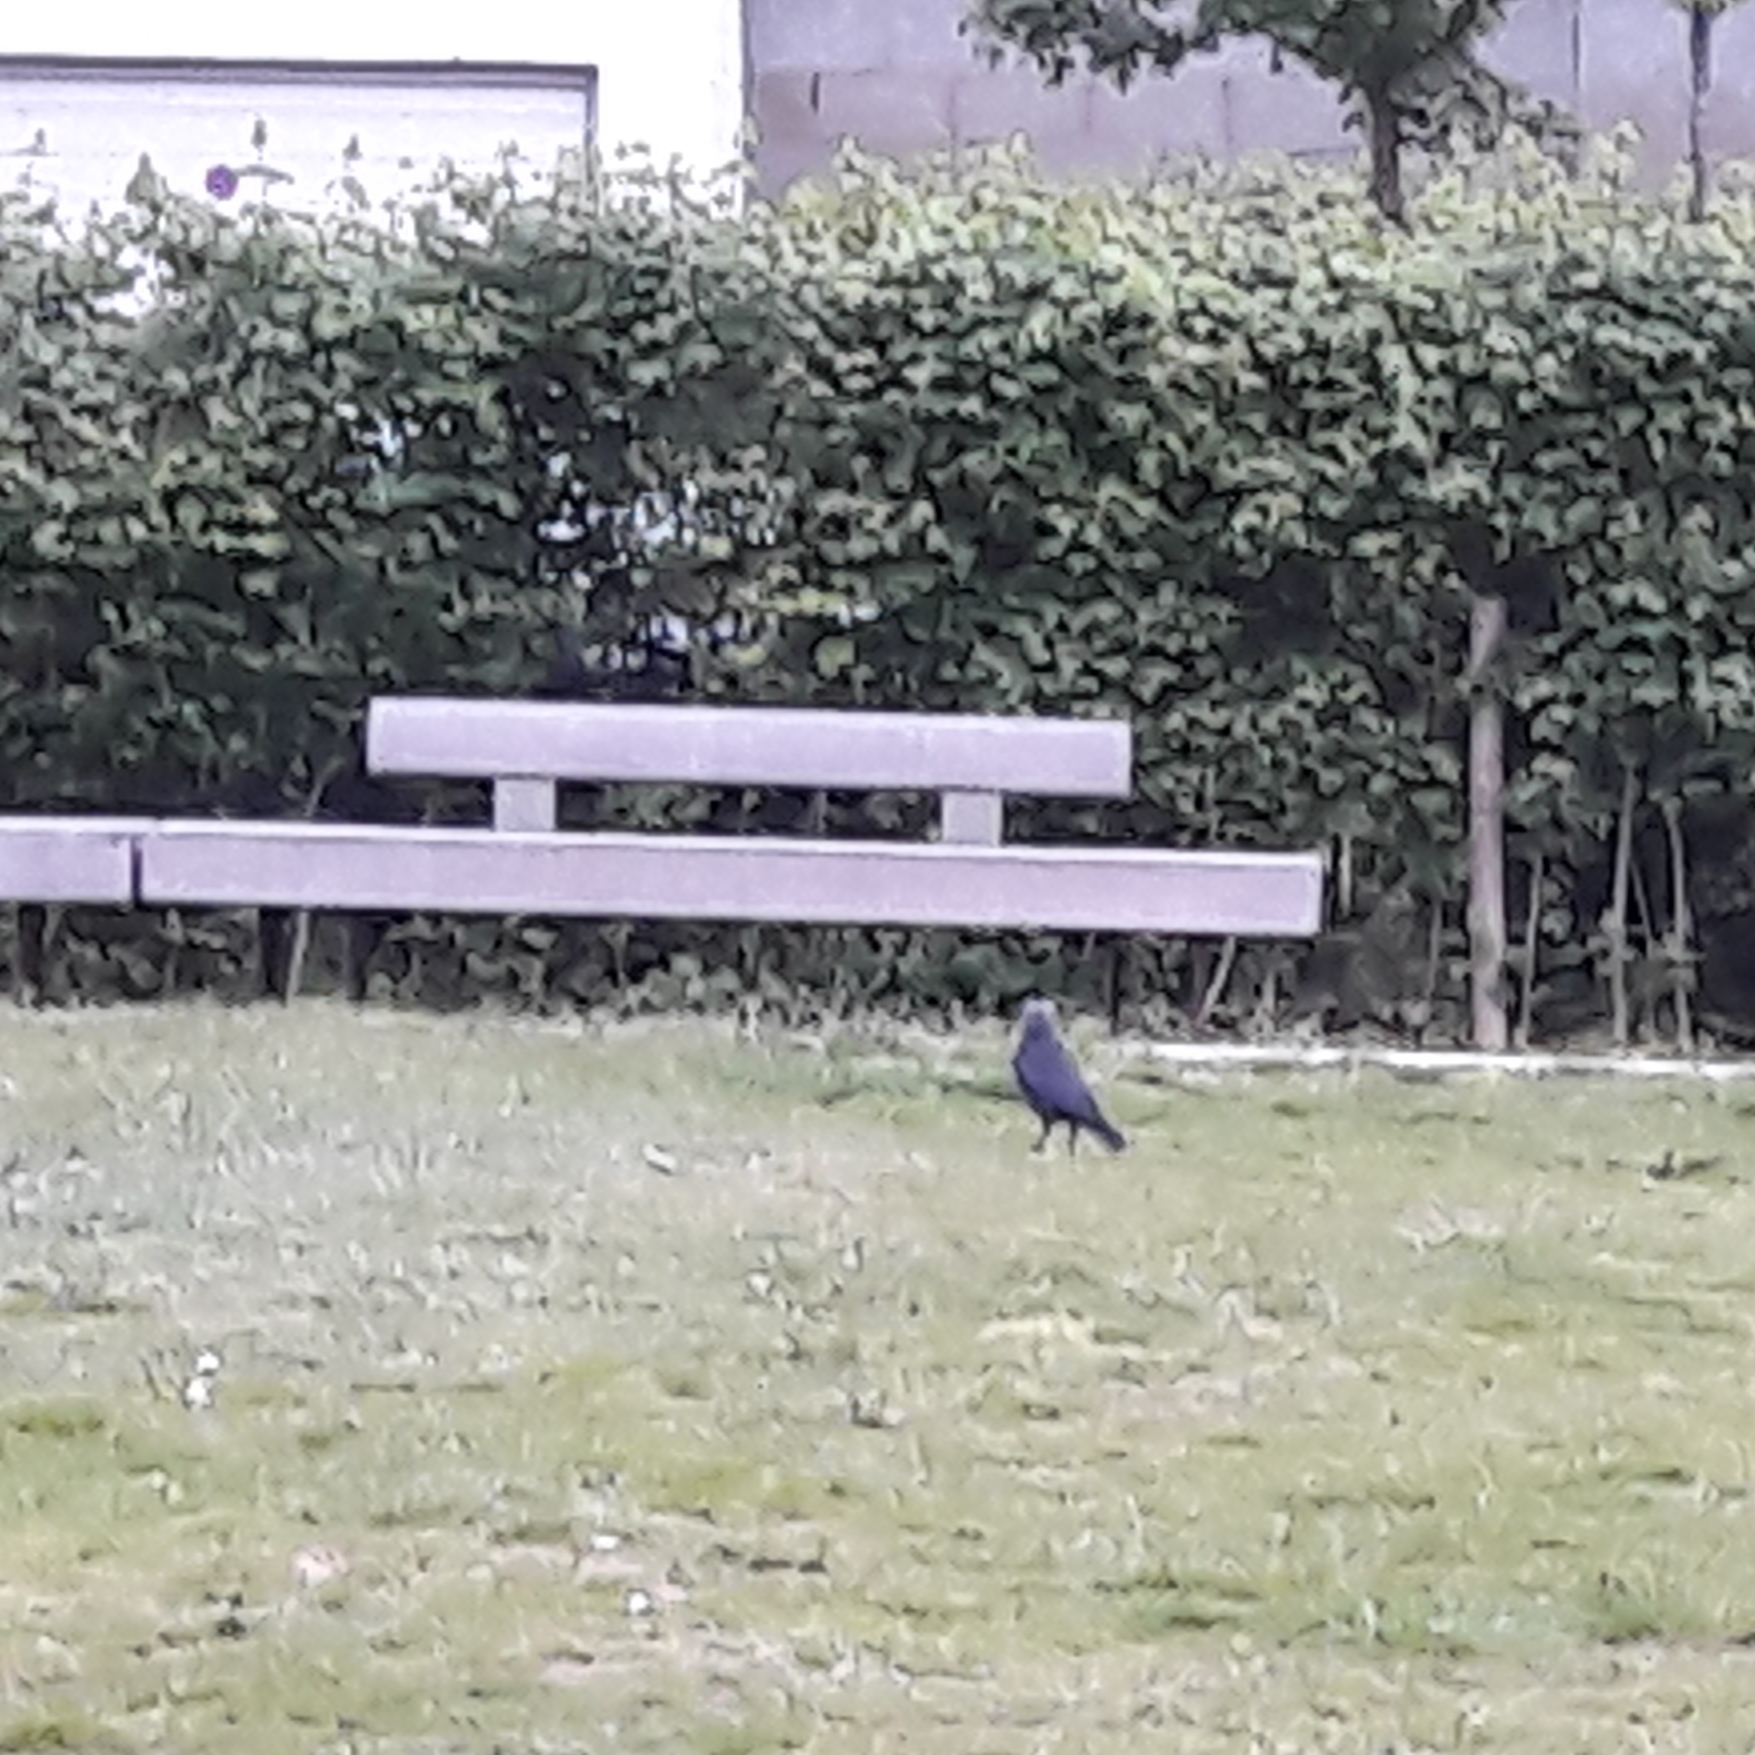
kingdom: Animalia
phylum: Chordata
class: Aves
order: Passeriformes
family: Corvidae
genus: Coloeus
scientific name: Coloeus monedula
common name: Western jackdaw
